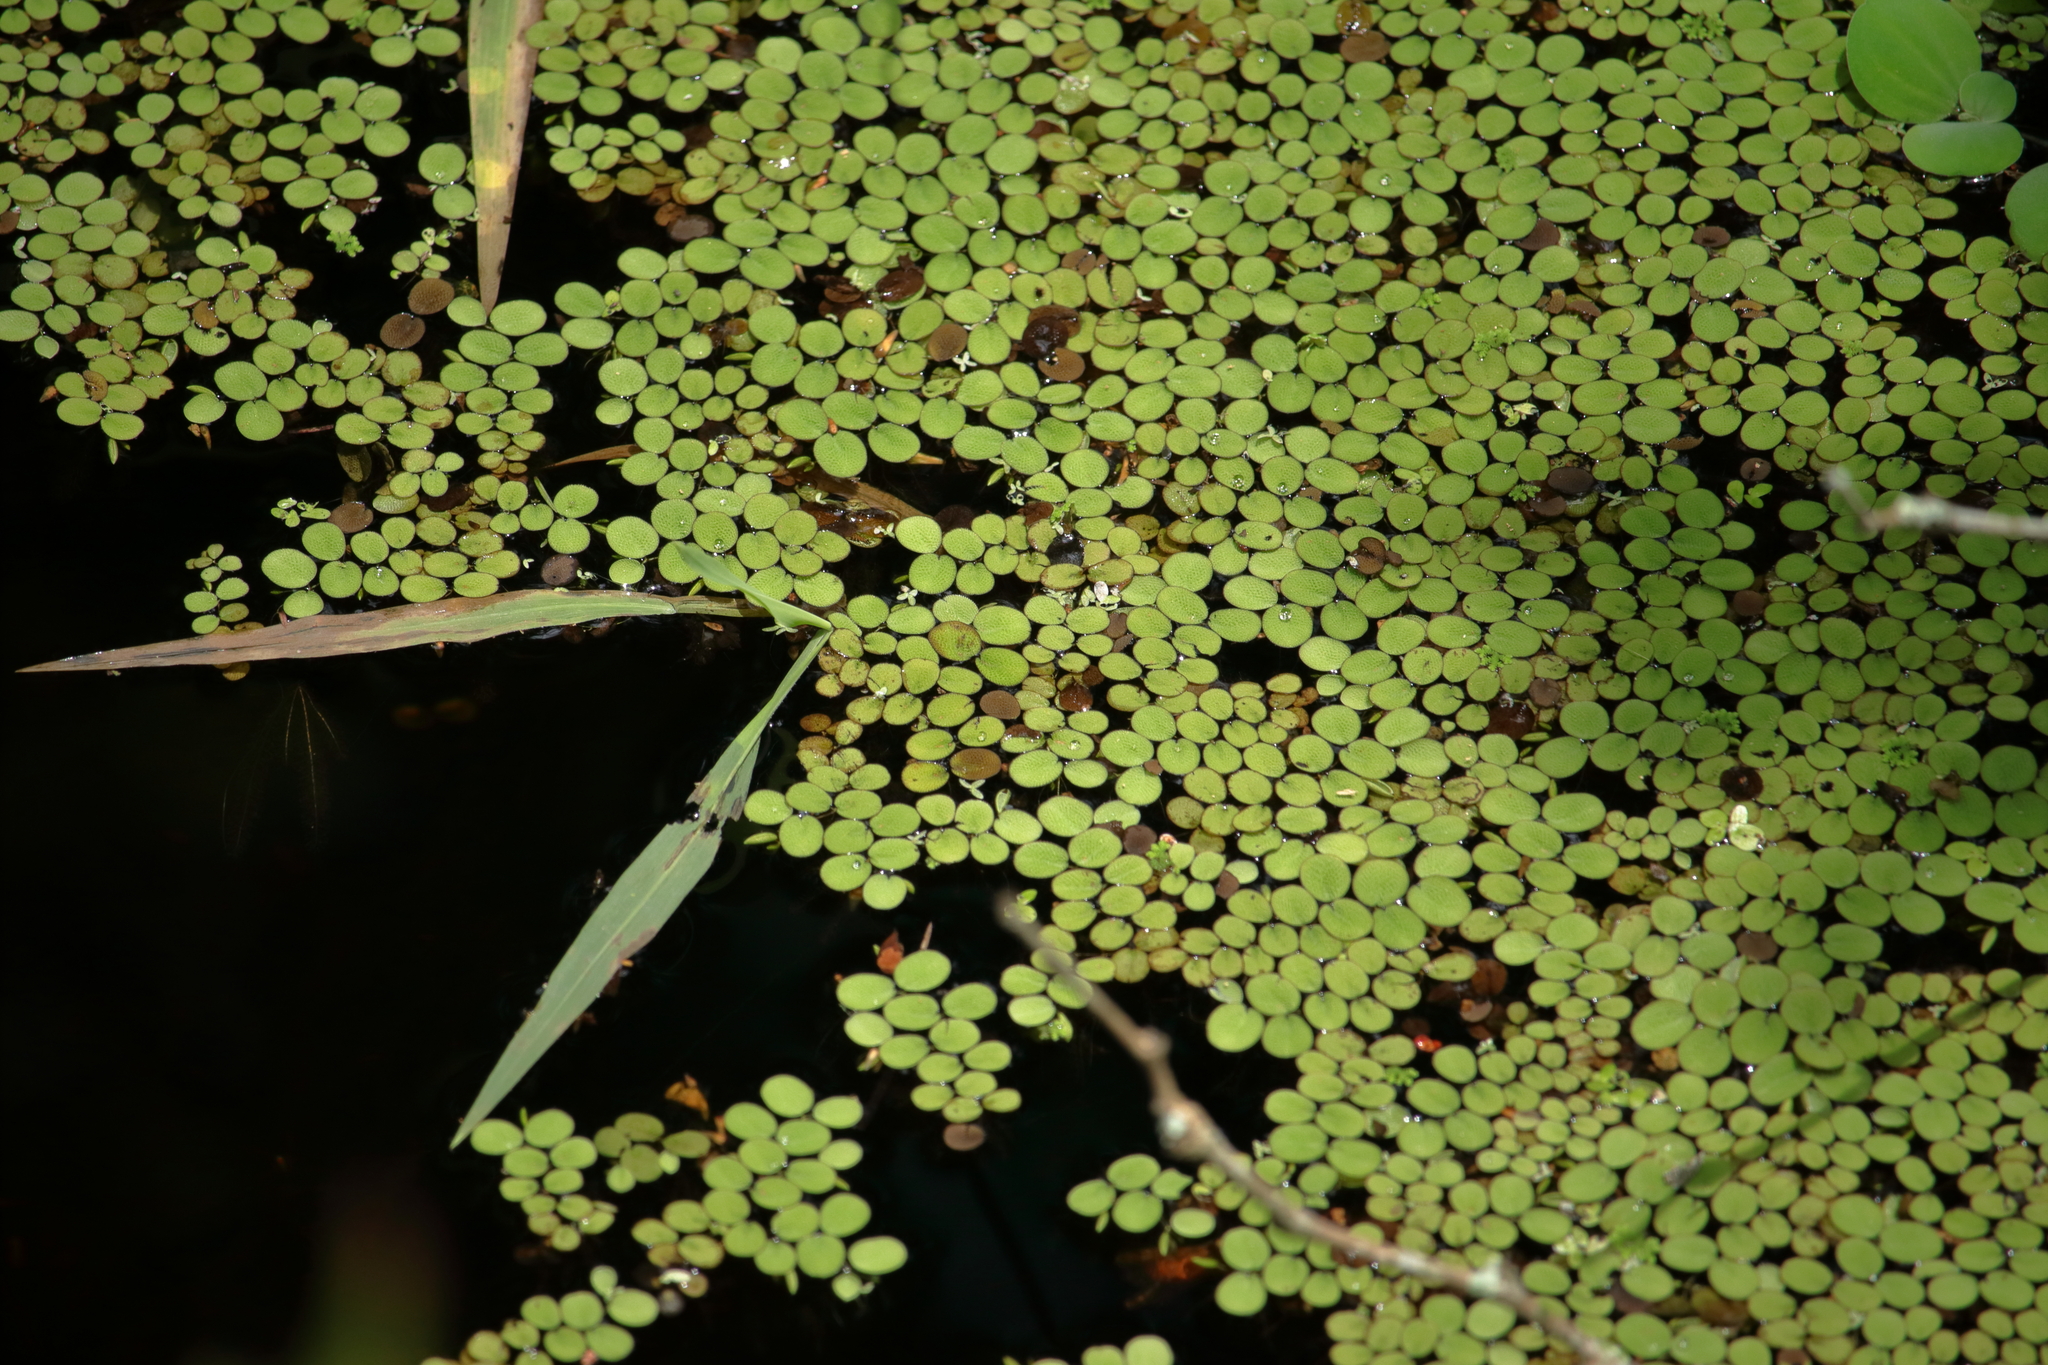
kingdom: Plantae
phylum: Tracheophyta
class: Polypodiopsida
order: Salviniales
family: Salviniaceae
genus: Salvinia
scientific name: Salvinia minima
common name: Water spangles
